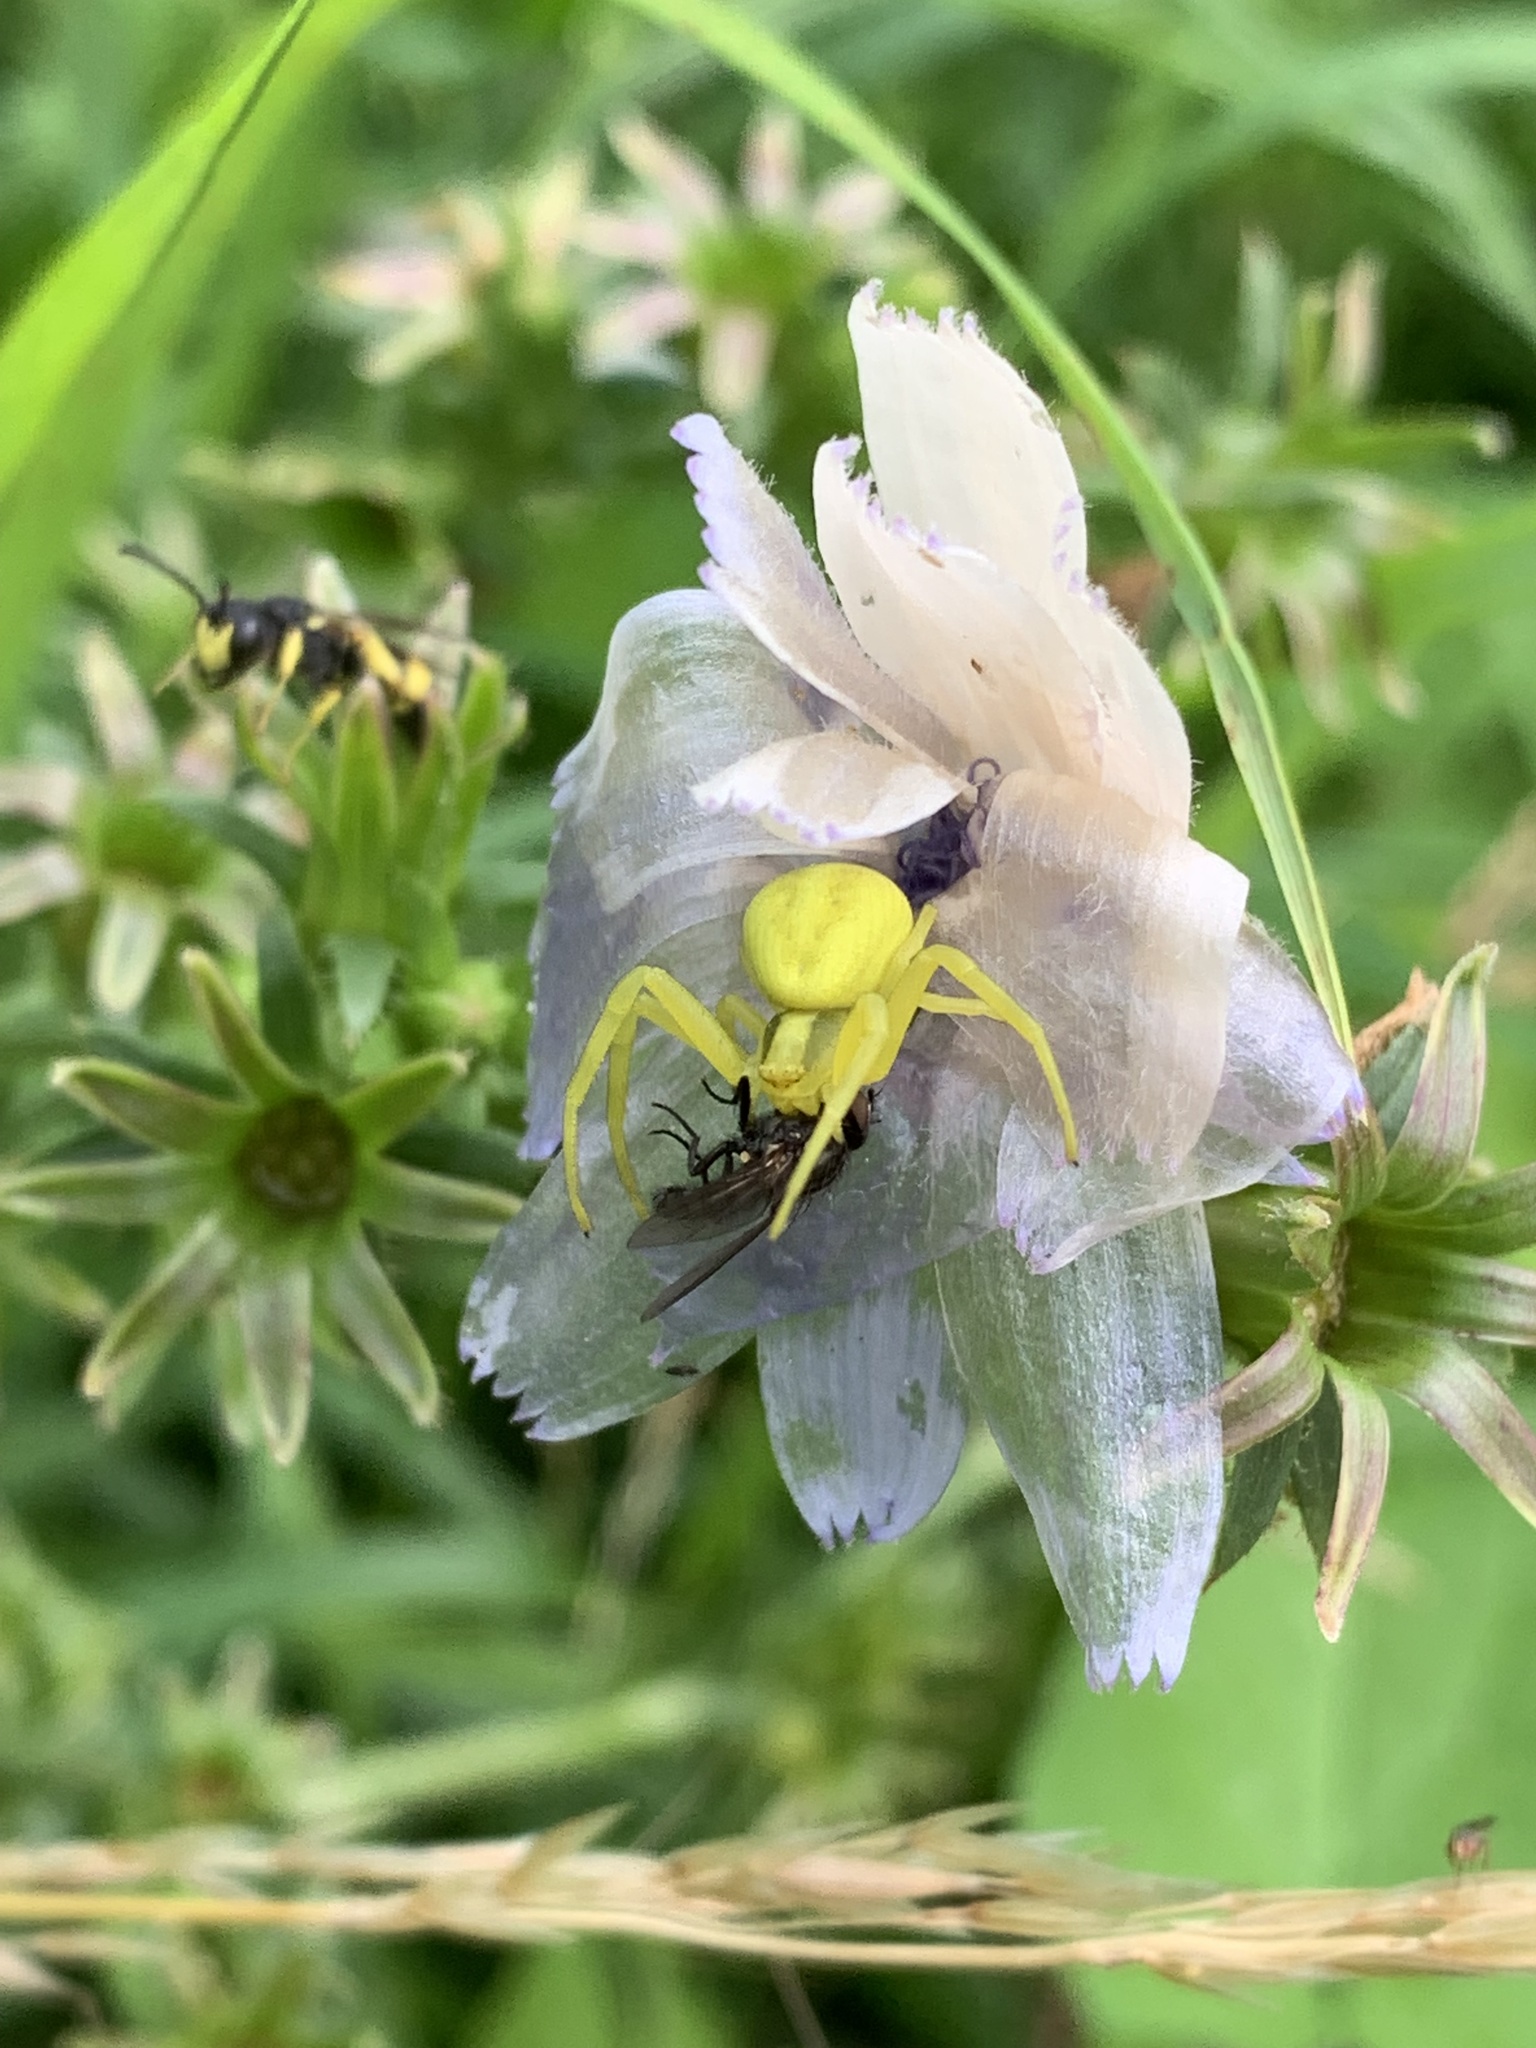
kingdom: Animalia
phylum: Arthropoda
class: Arachnida
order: Araneae
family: Thomisidae
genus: Misumena
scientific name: Misumena vatia
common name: Goldenrod crab spider
